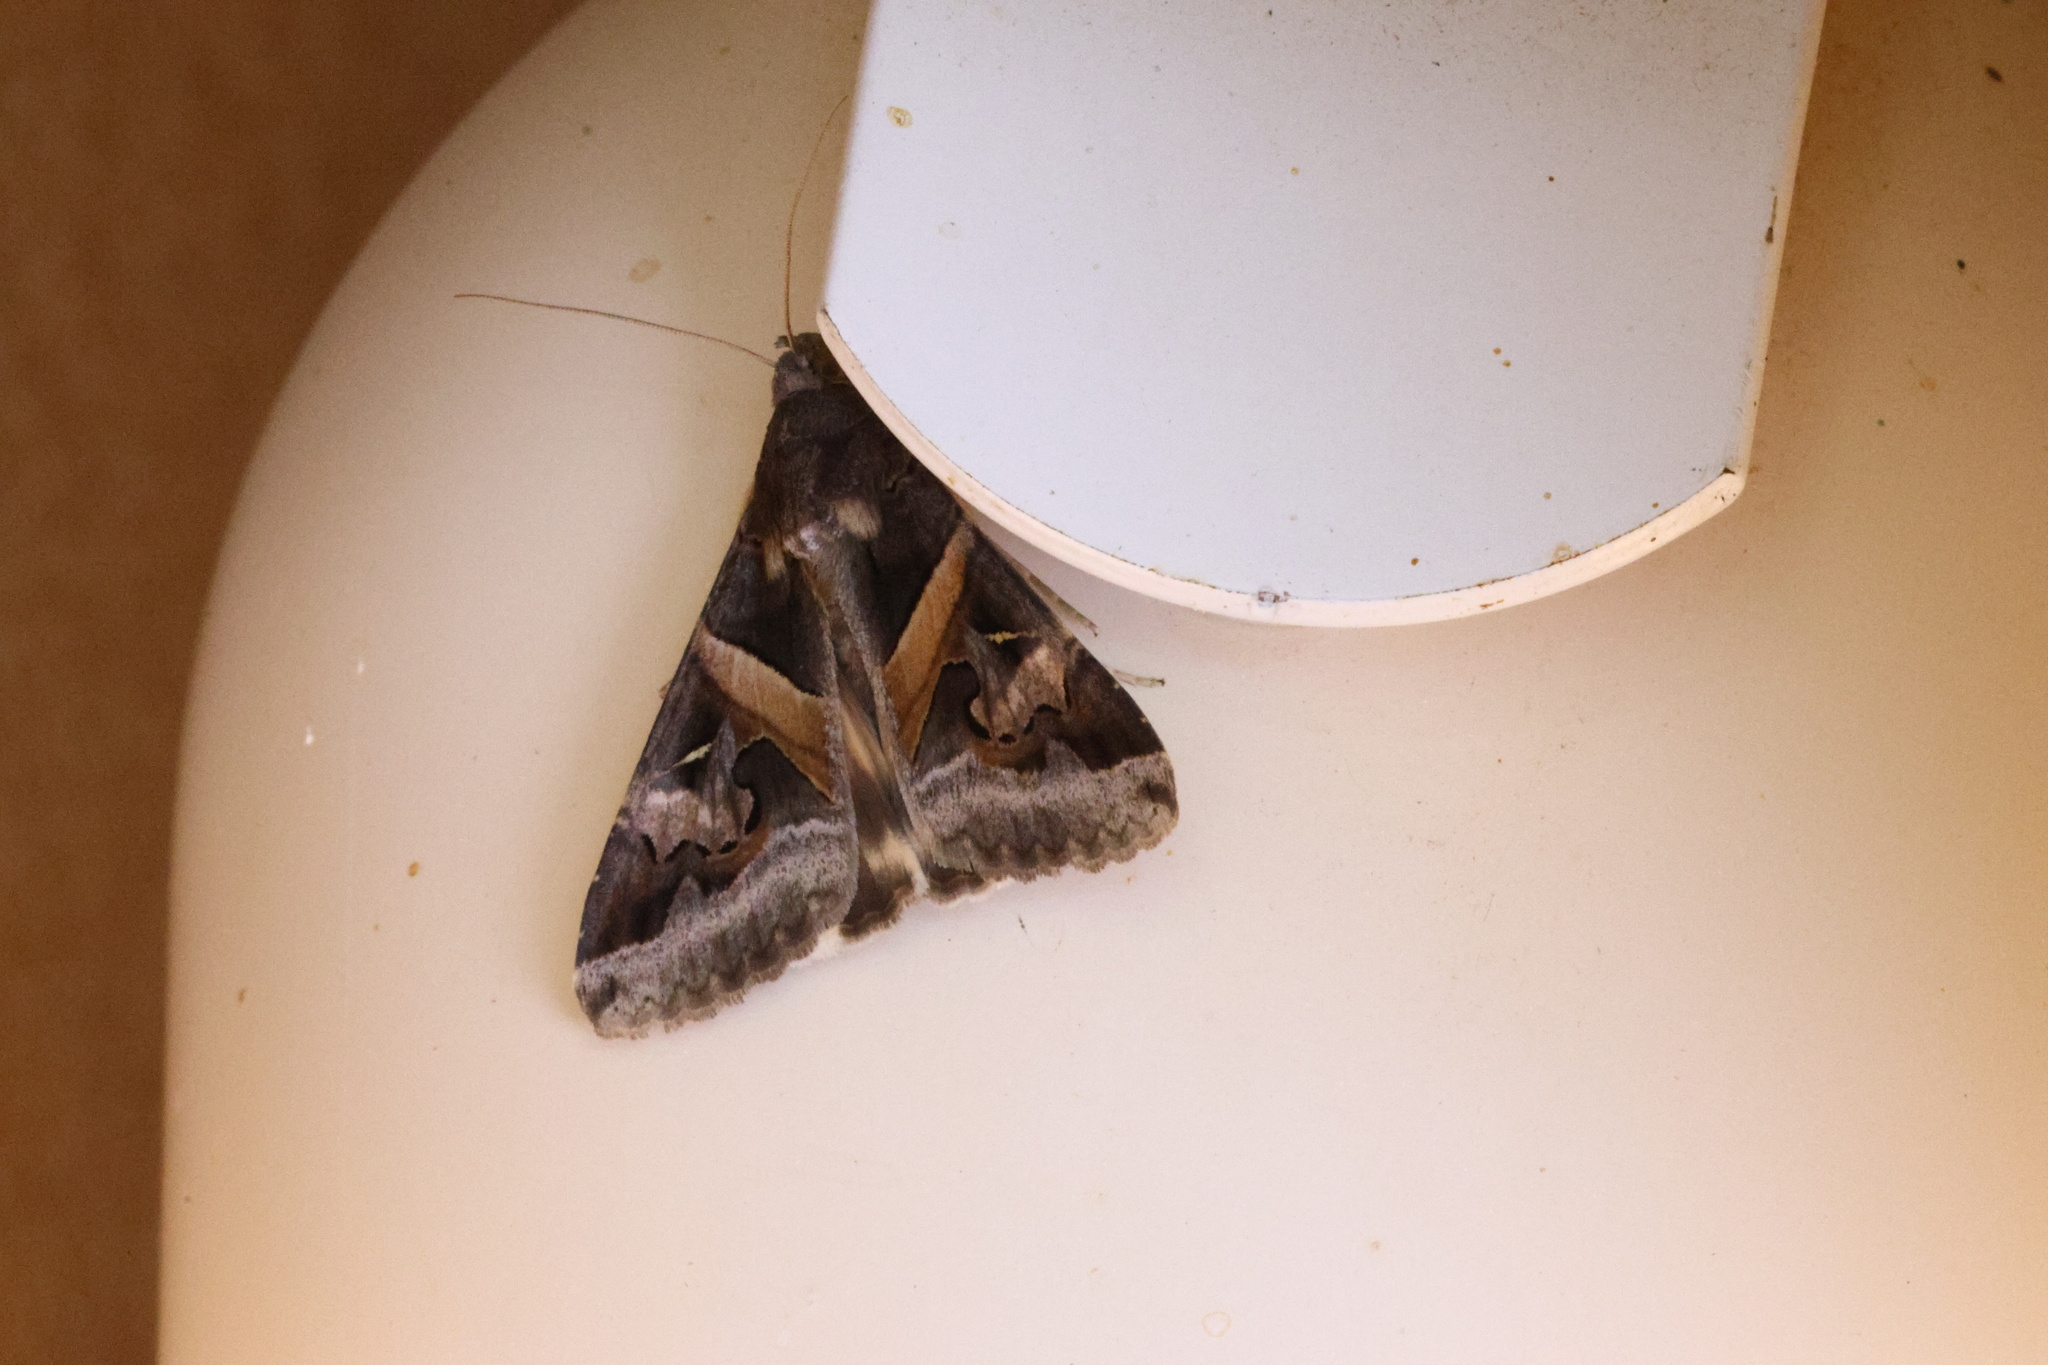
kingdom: Animalia
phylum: Arthropoda
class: Insecta
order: Lepidoptera
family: Erebidae
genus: Melipotis
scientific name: Melipotis indomita
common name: Moth
